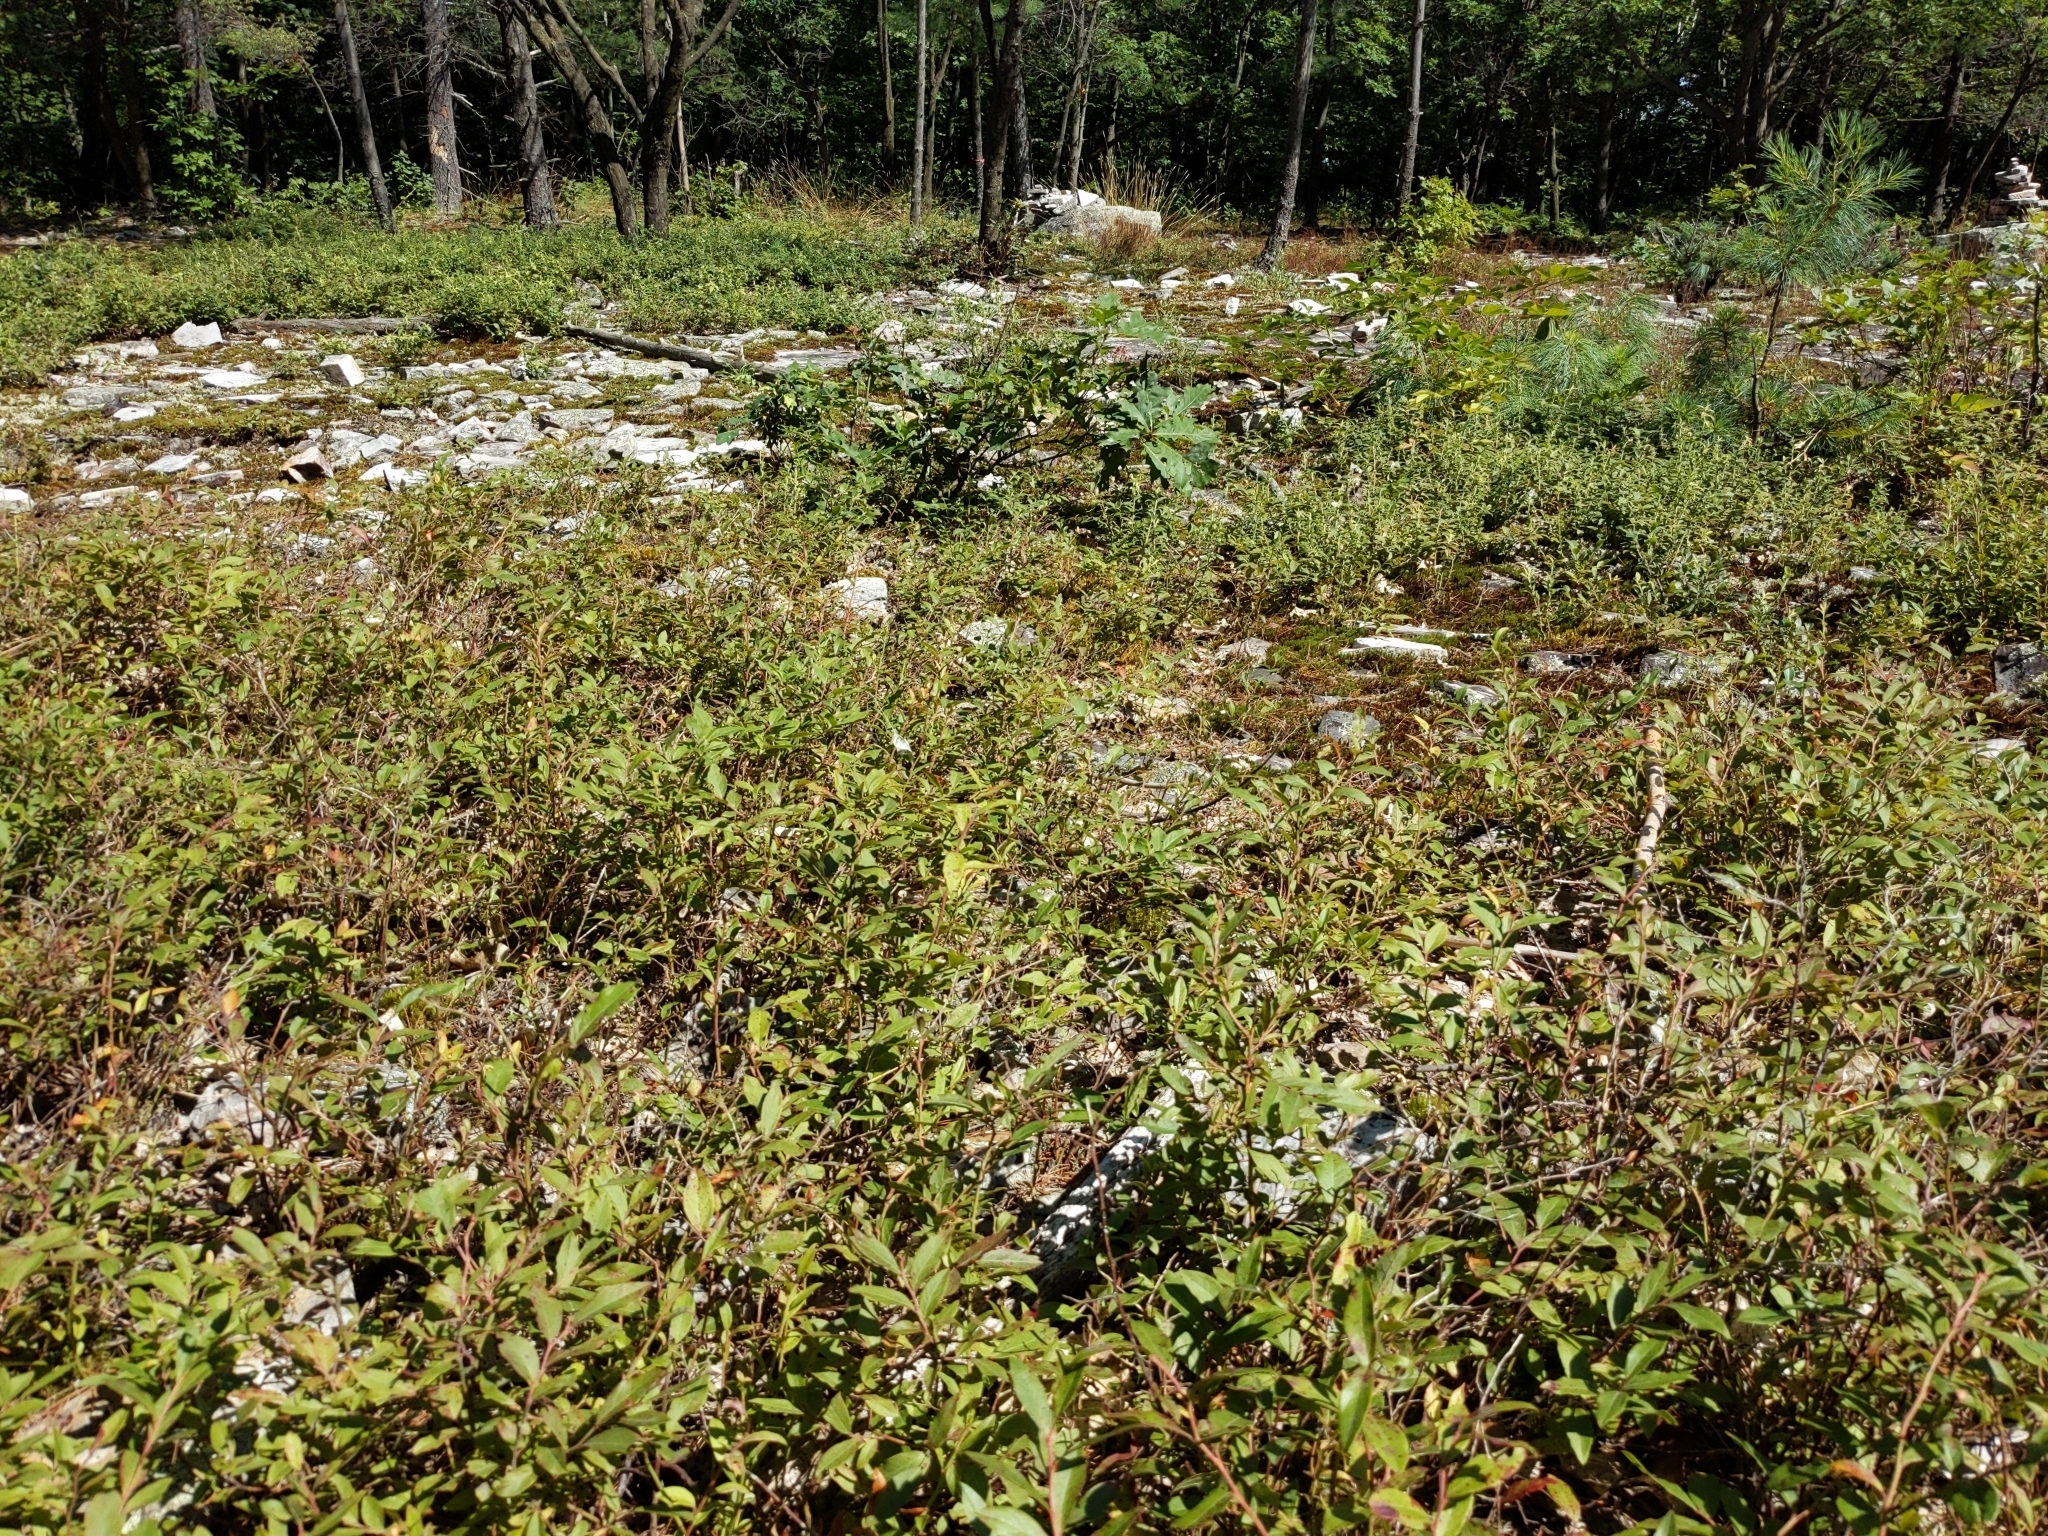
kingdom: Plantae
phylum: Tracheophyta
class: Magnoliopsida
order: Ericales
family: Ericaceae
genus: Vaccinium
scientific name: Vaccinium angustifolium
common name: Early lowbush blueberry
